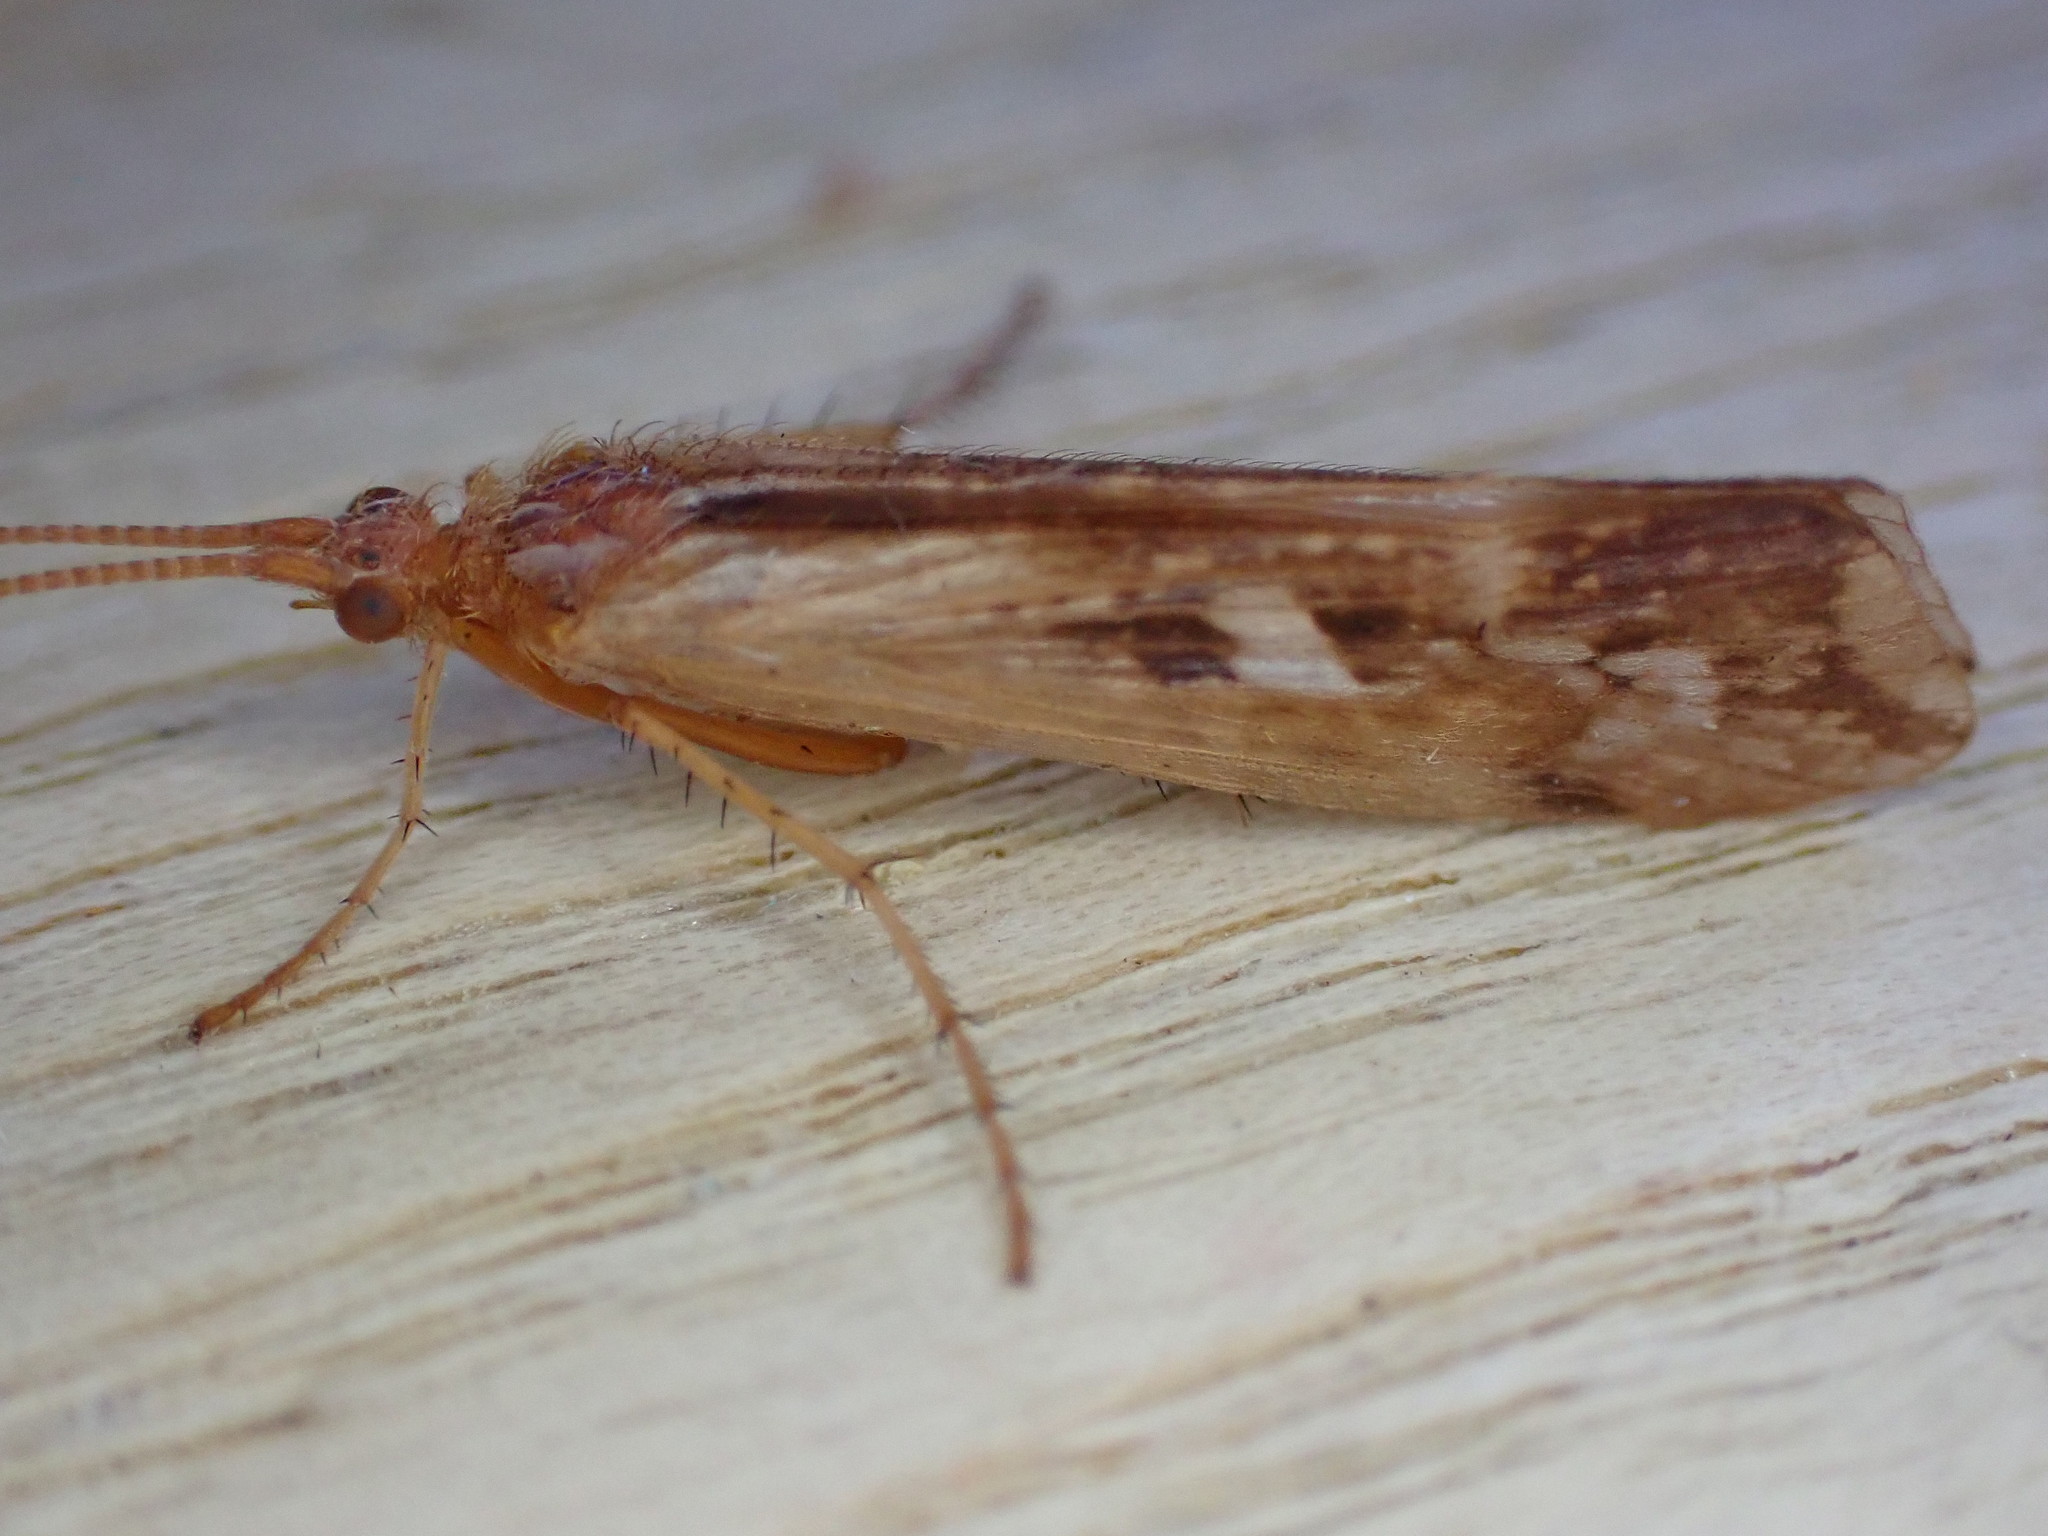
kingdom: Animalia
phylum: Arthropoda
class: Insecta
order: Trichoptera
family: Limnephilidae
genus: Limnephilus
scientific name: Limnephilus lunatus
